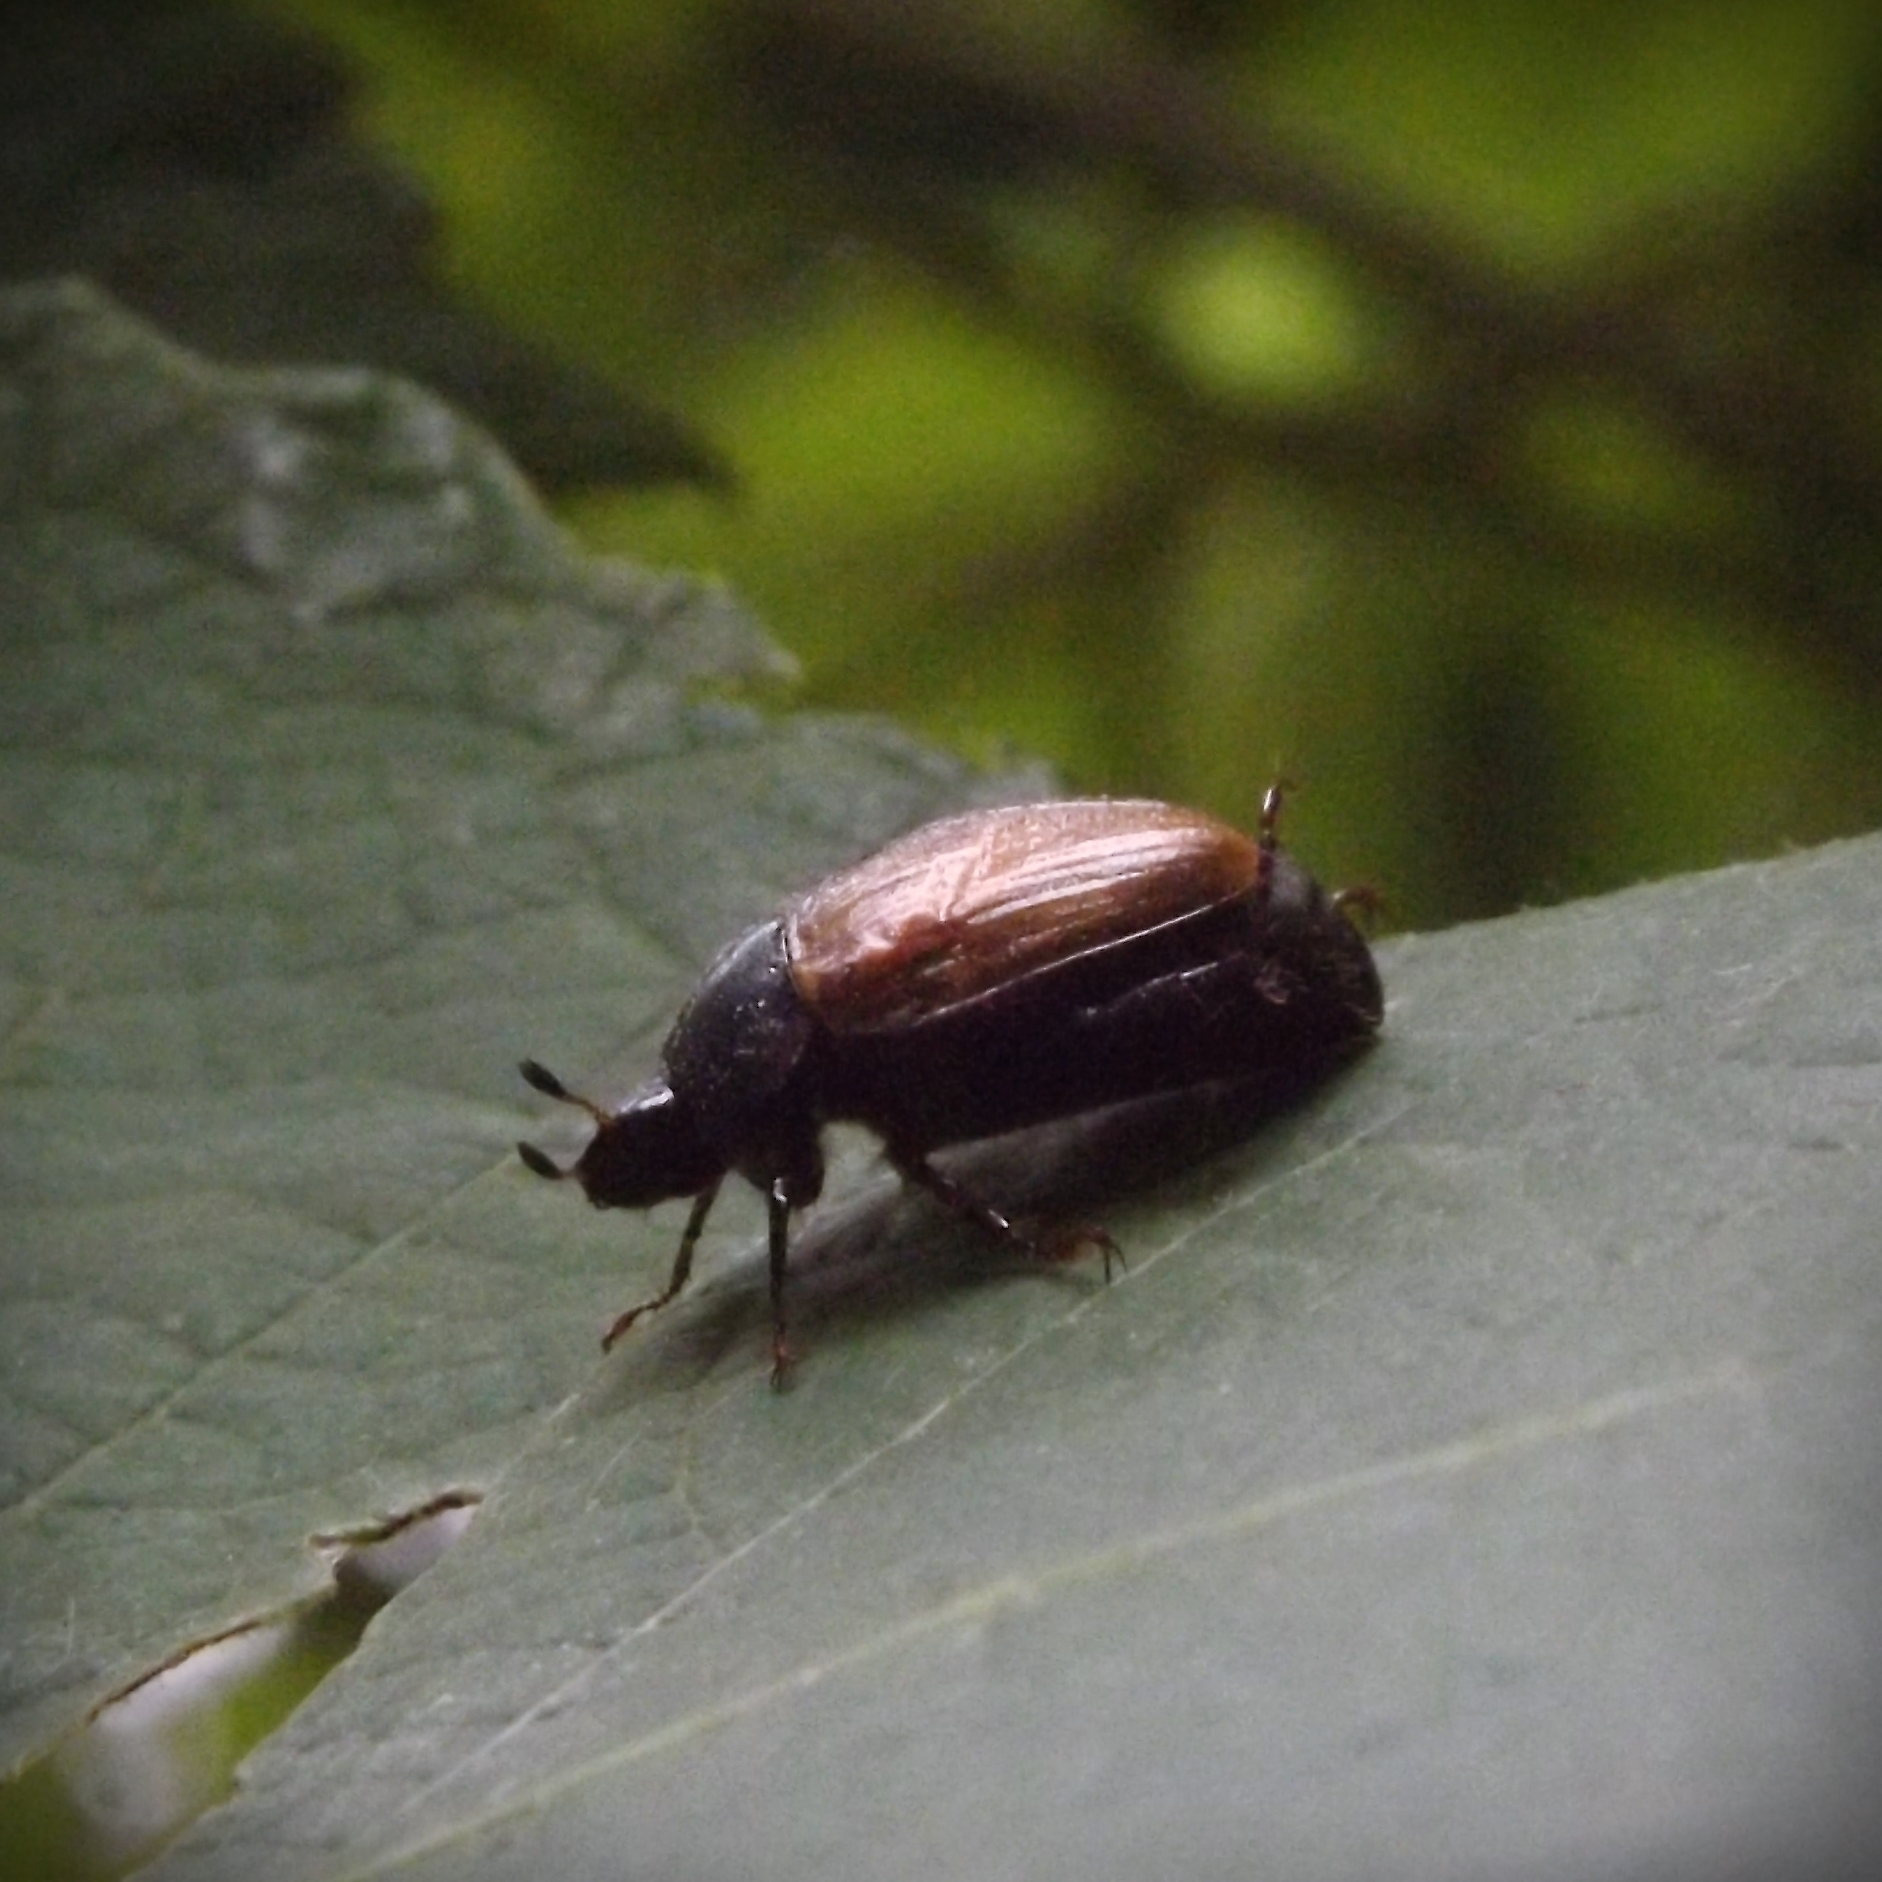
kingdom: Animalia
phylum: Arthropoda
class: Insecta
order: Coleoptera
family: Scarabaeidae
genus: Anomala
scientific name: Anomala dubia
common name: Dune chafer
